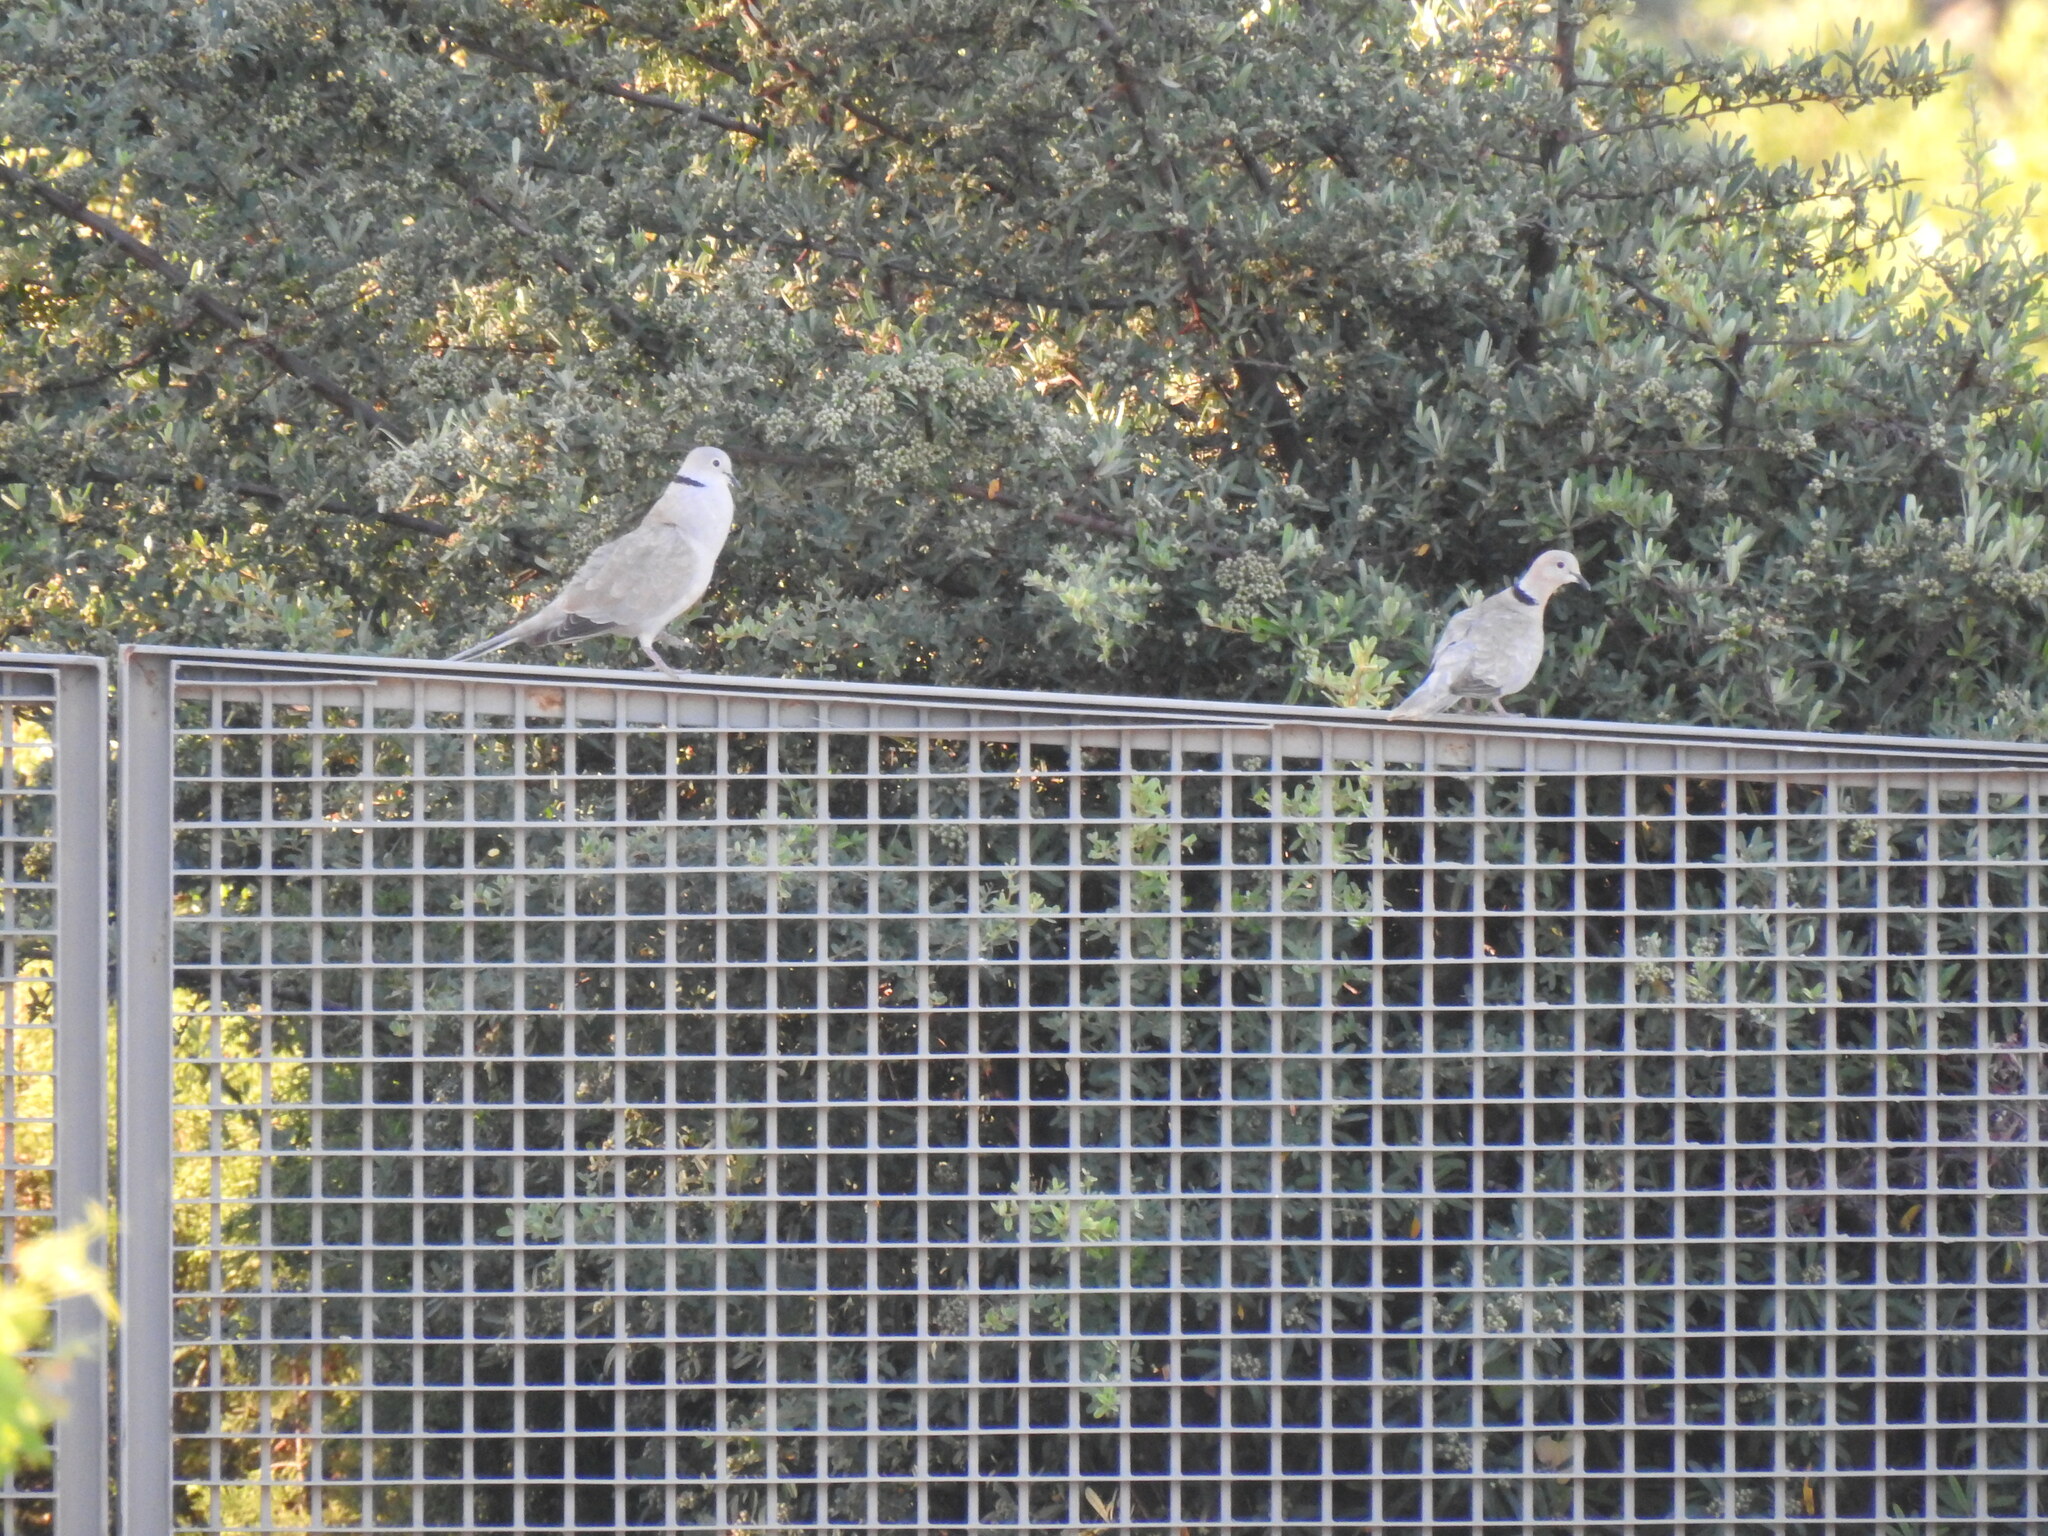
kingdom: Animalia
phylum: Chordata
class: Aves
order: Columbiformes
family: Columbidae
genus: Streptopelia
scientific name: Streptopelia decaocto
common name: Eurasian collared dove
